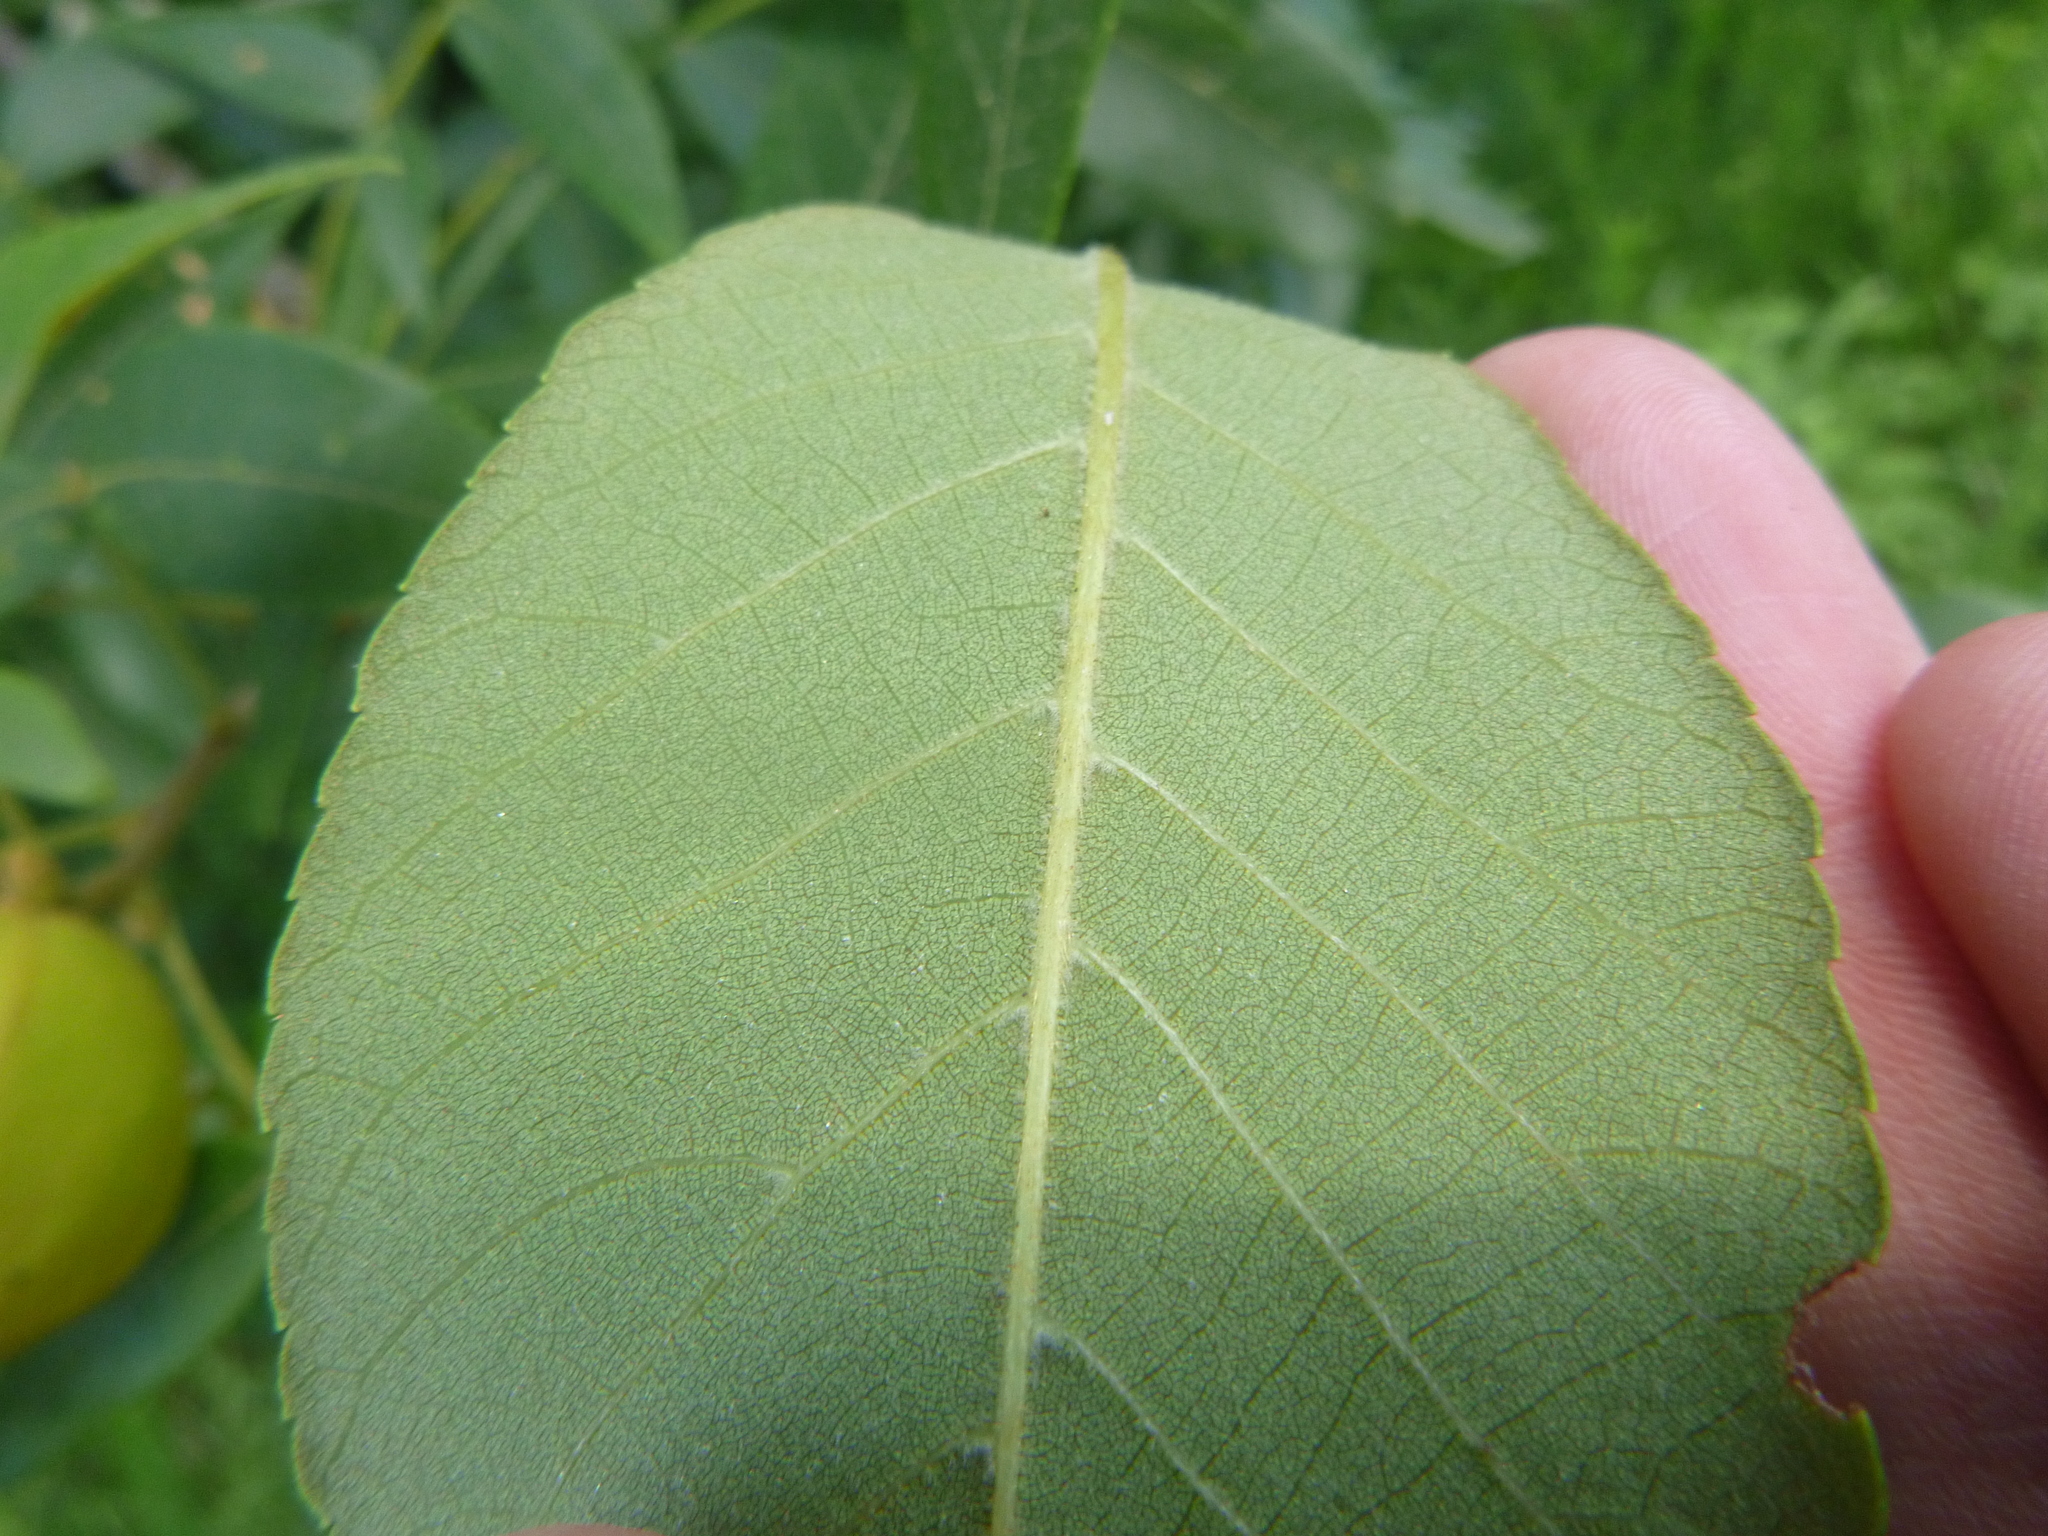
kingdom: Plantae
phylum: Tracheophyta
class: Magnoliopsida
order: Fagales
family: Juglandaceae
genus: Carya
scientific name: Carya alba
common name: Mockernut hickory
